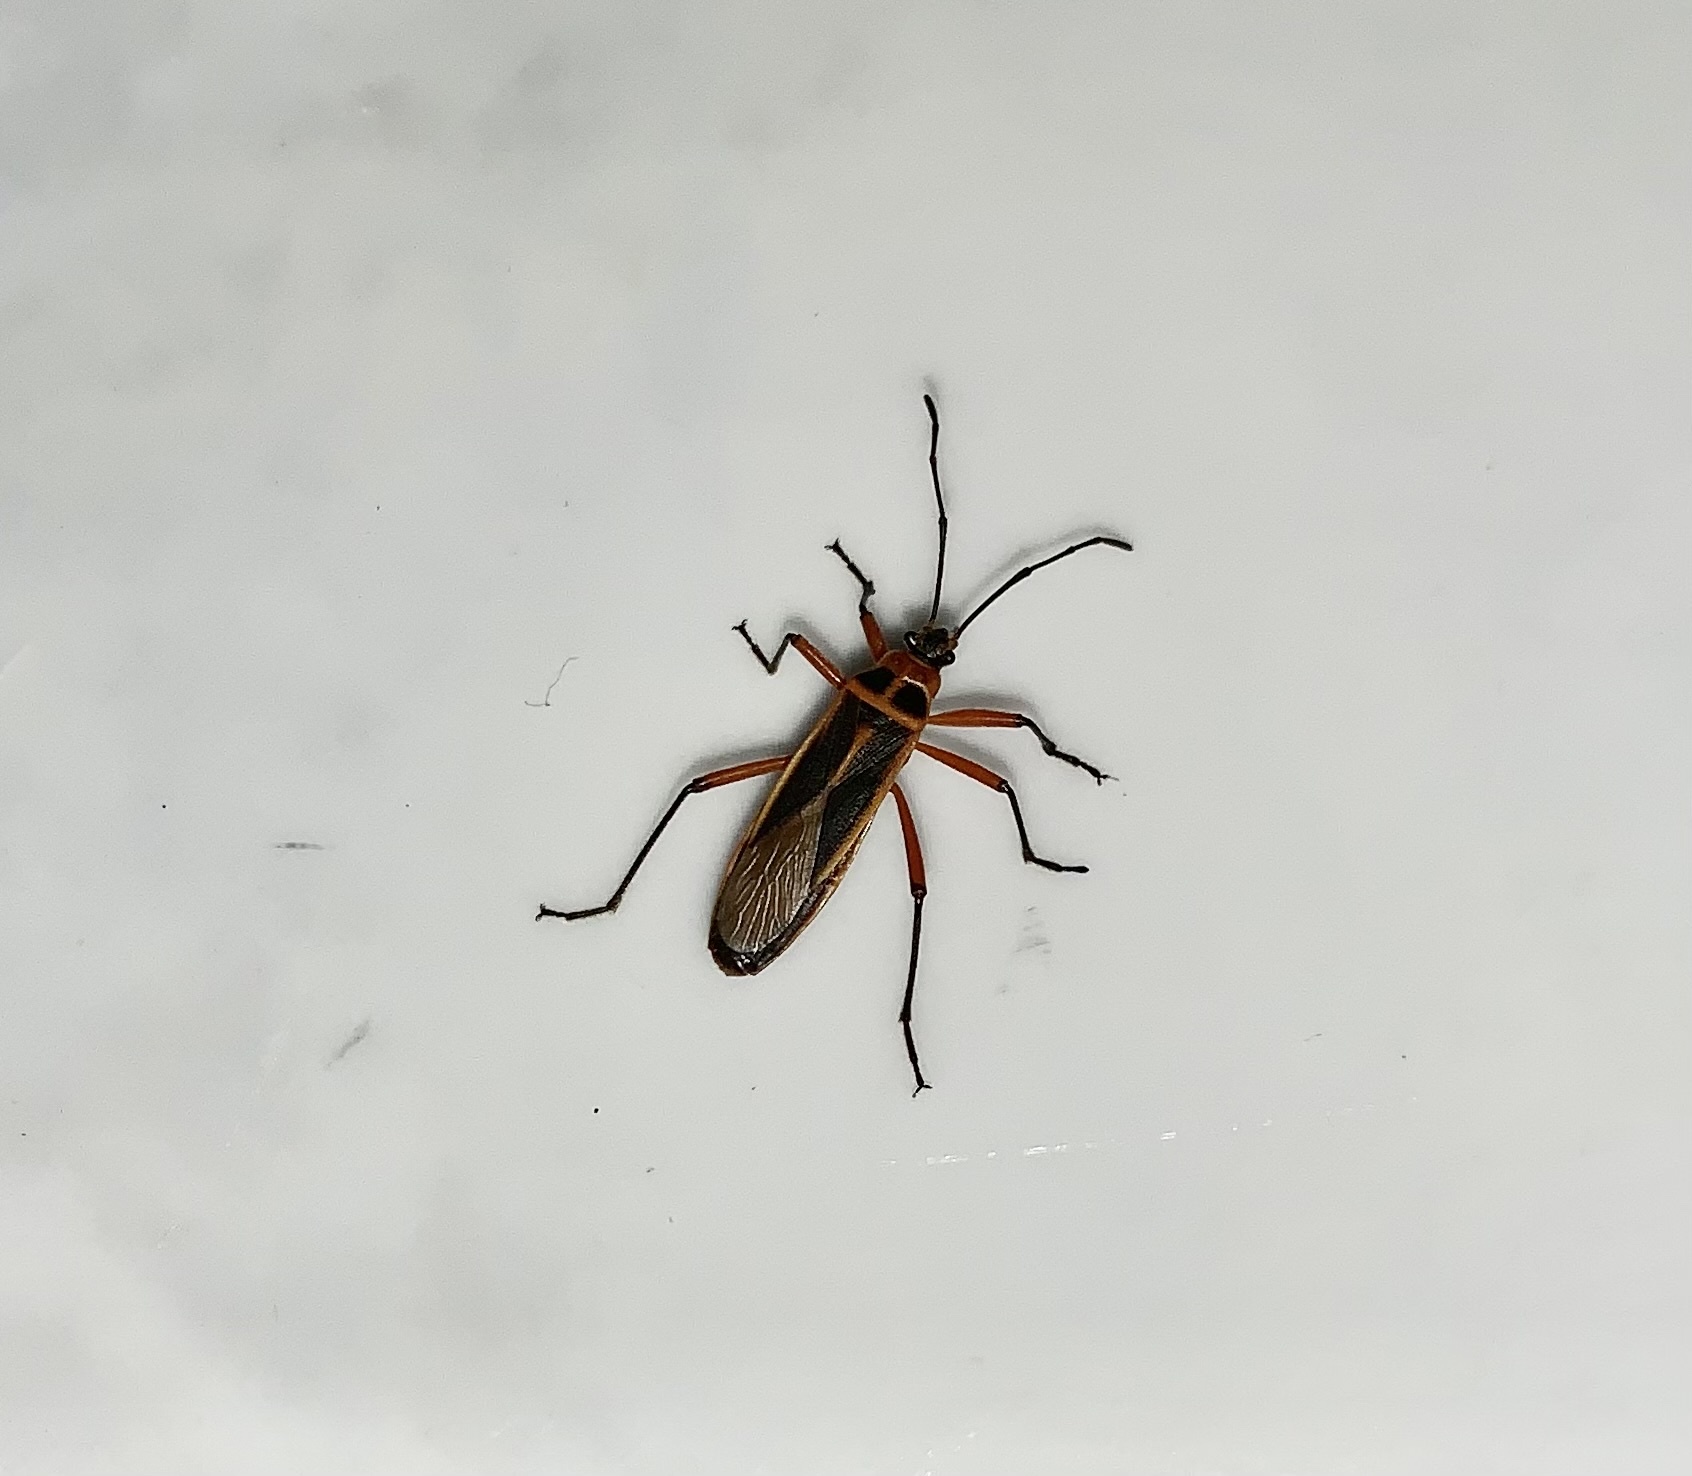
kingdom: Animalia
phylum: Arthropoda
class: Insecta
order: Hemiptera
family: Largidae
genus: Stenomacra
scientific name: Stenomacra marginella
